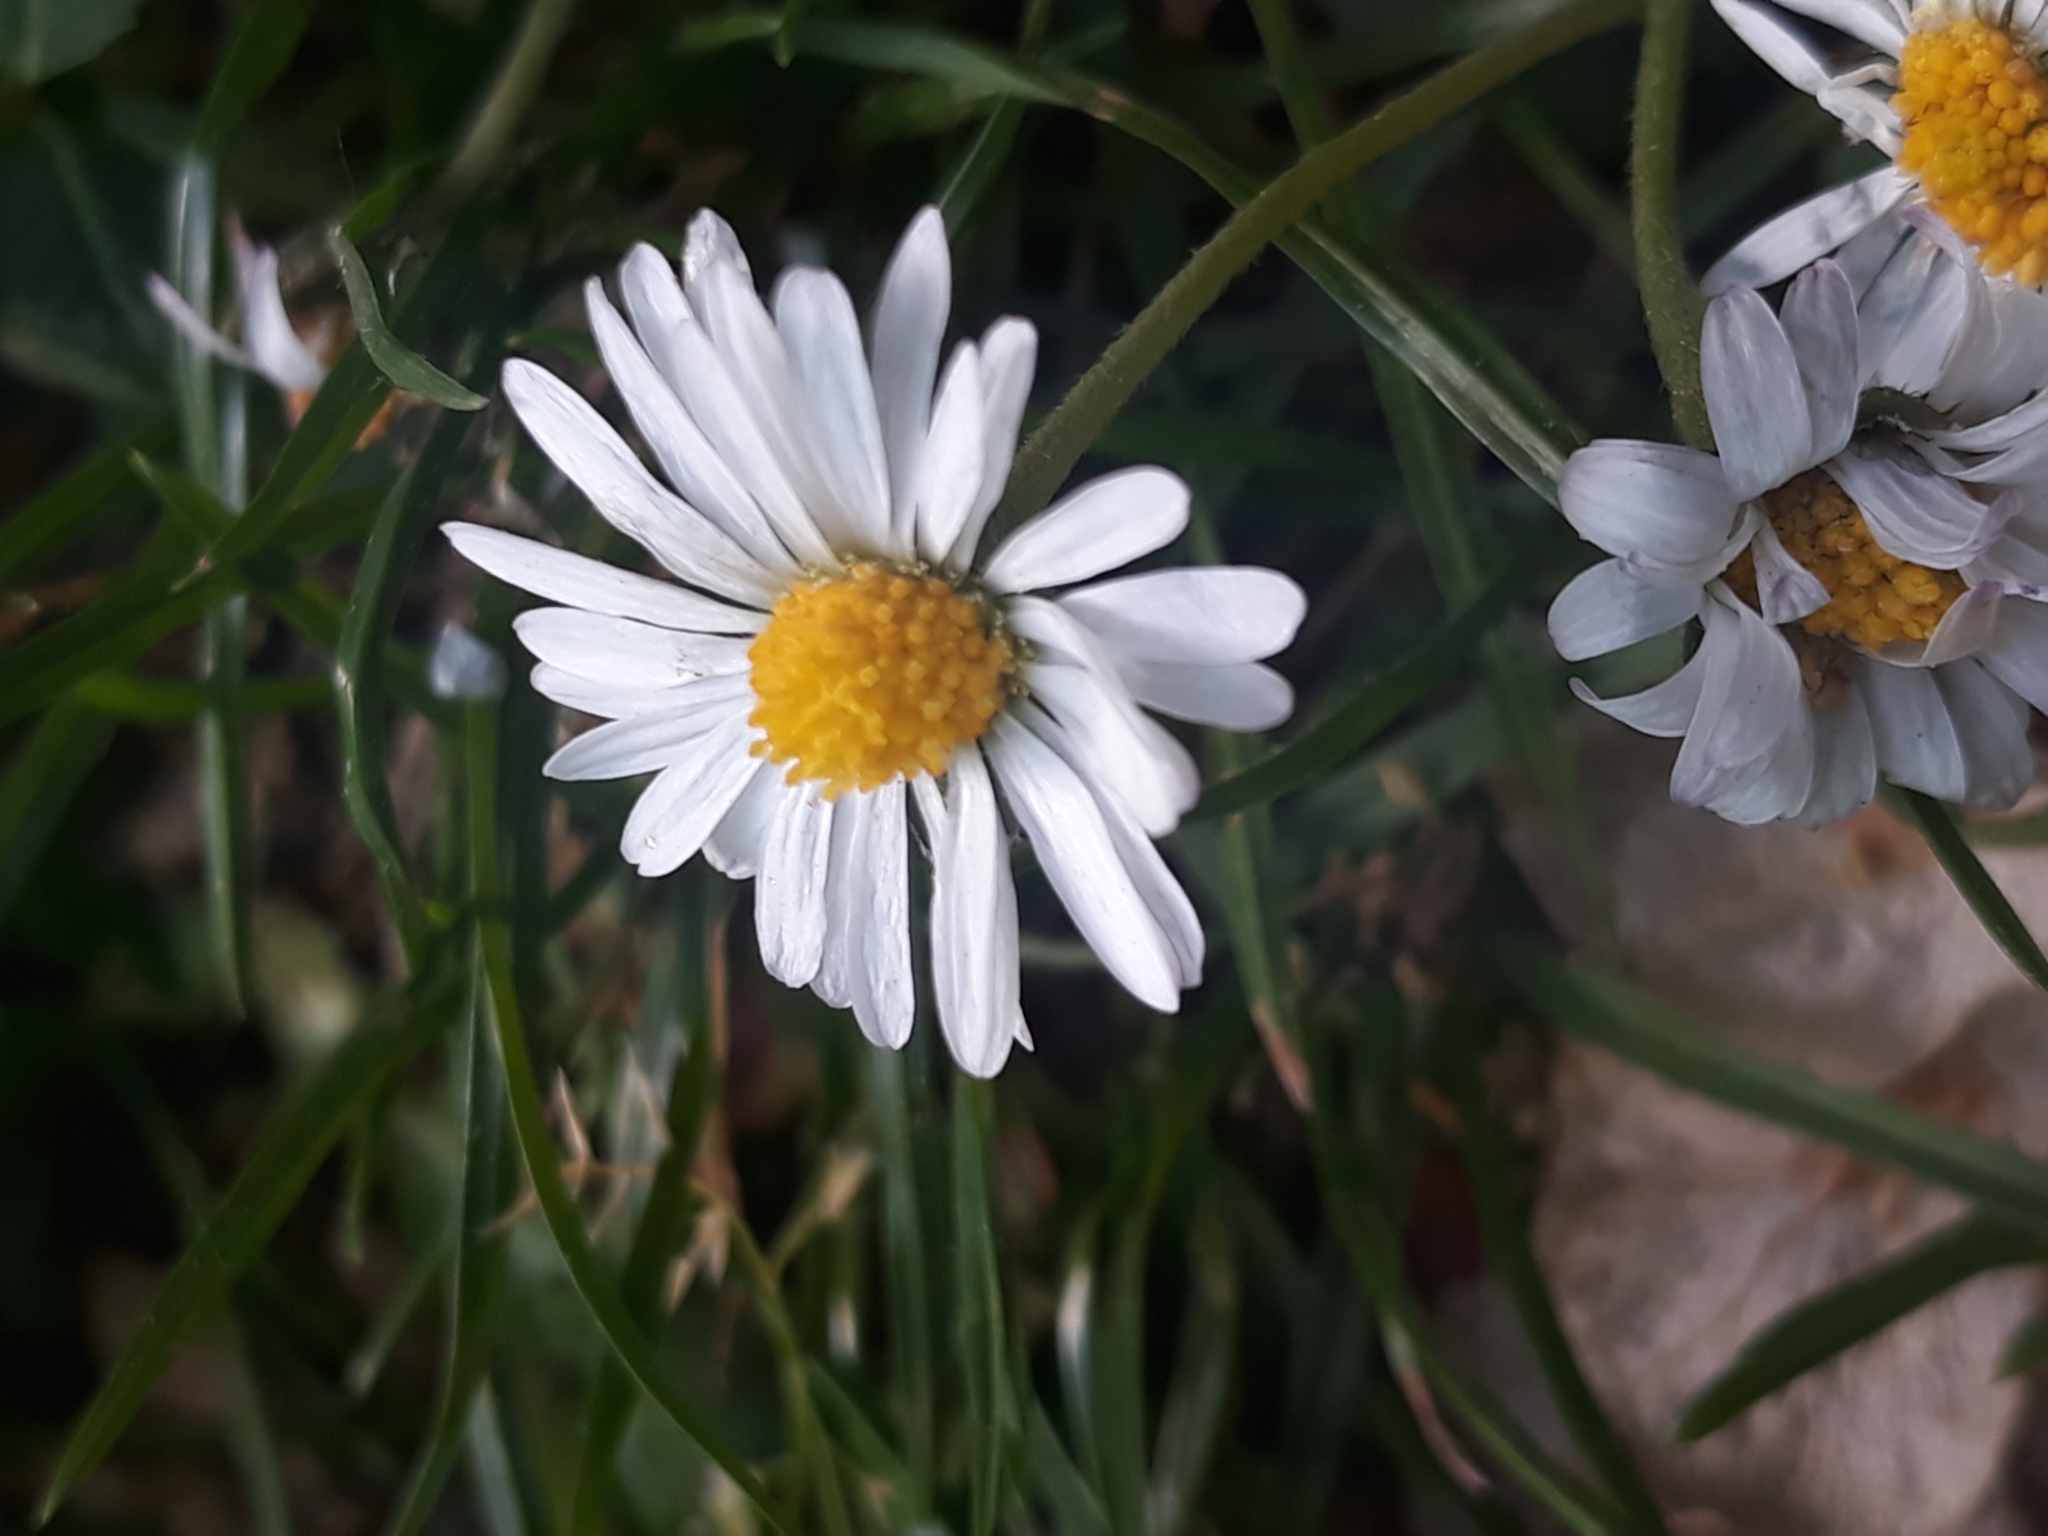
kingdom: Plantae
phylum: Tracheophyta
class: Magnoliopsida
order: Asterales
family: Asteraceae
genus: Bellis
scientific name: Bellis perennis
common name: Lawndaisy
